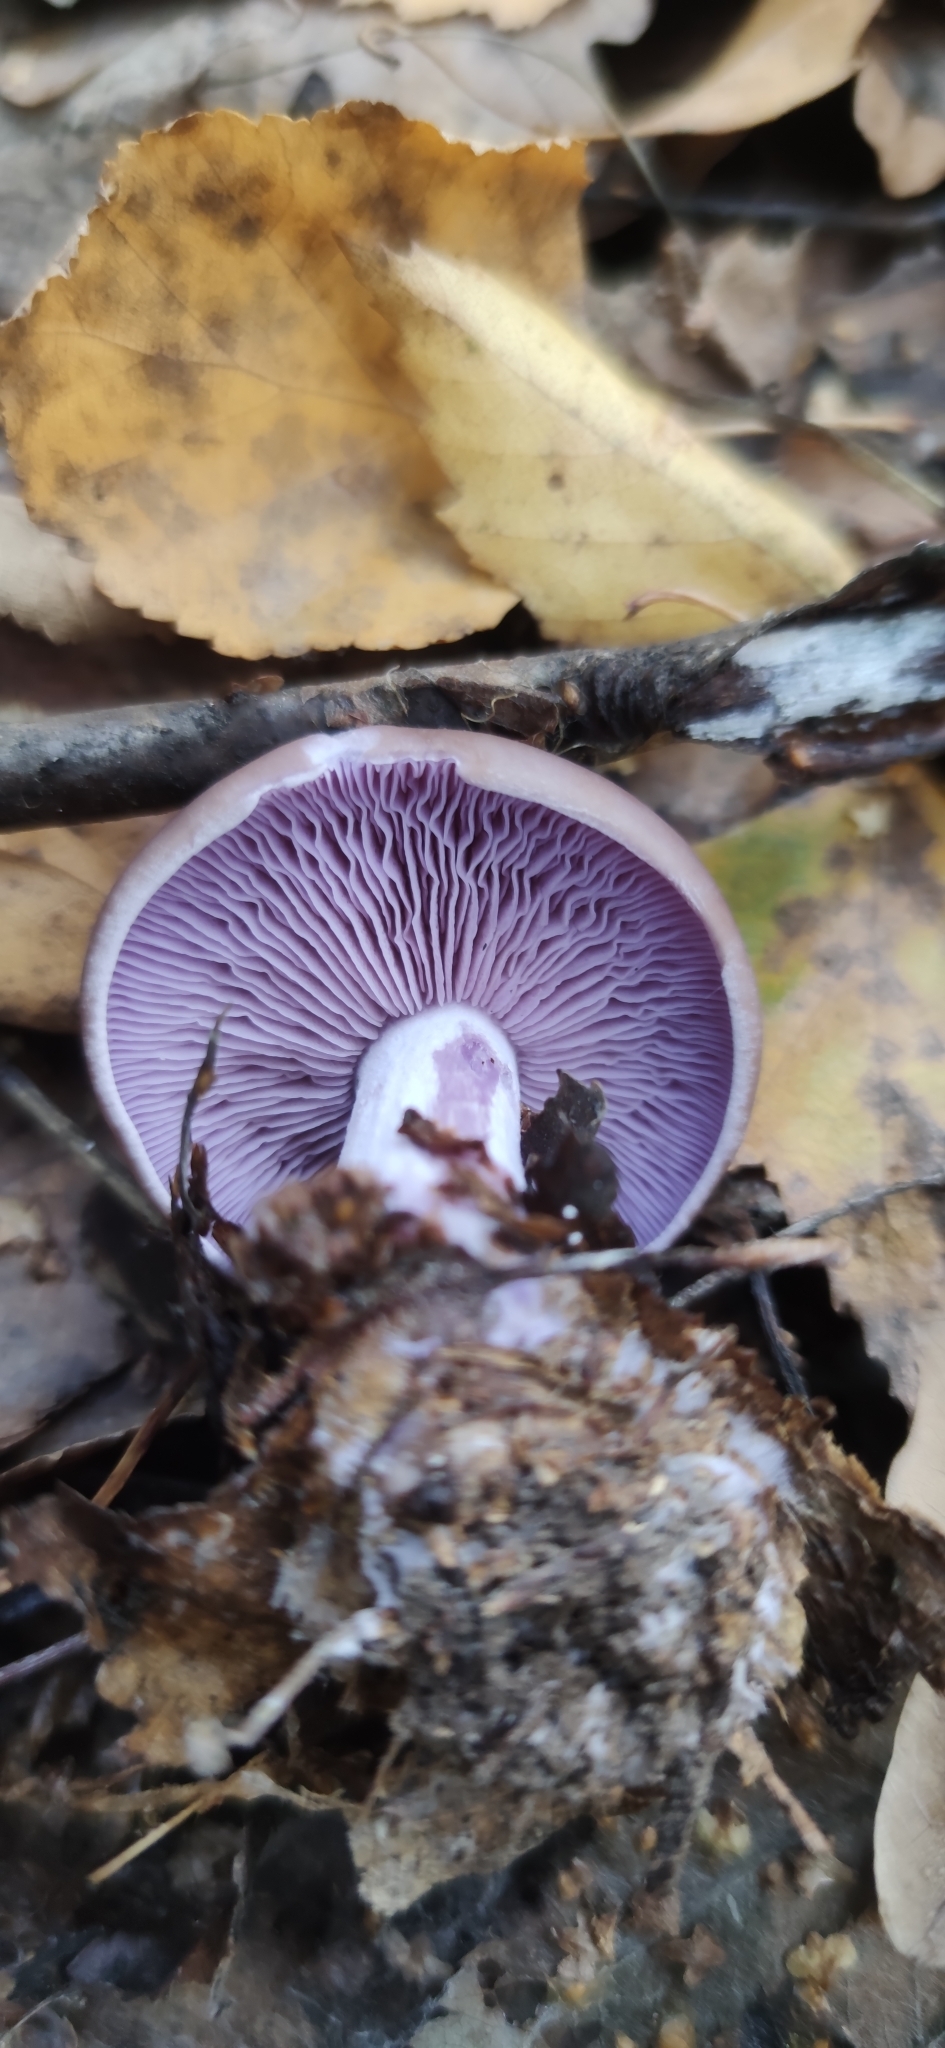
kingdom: Fungi
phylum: Basidiomycota
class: Agaricomycetes
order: Agaricales
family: Tricholomataceae
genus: Collybia
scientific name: Collybia
